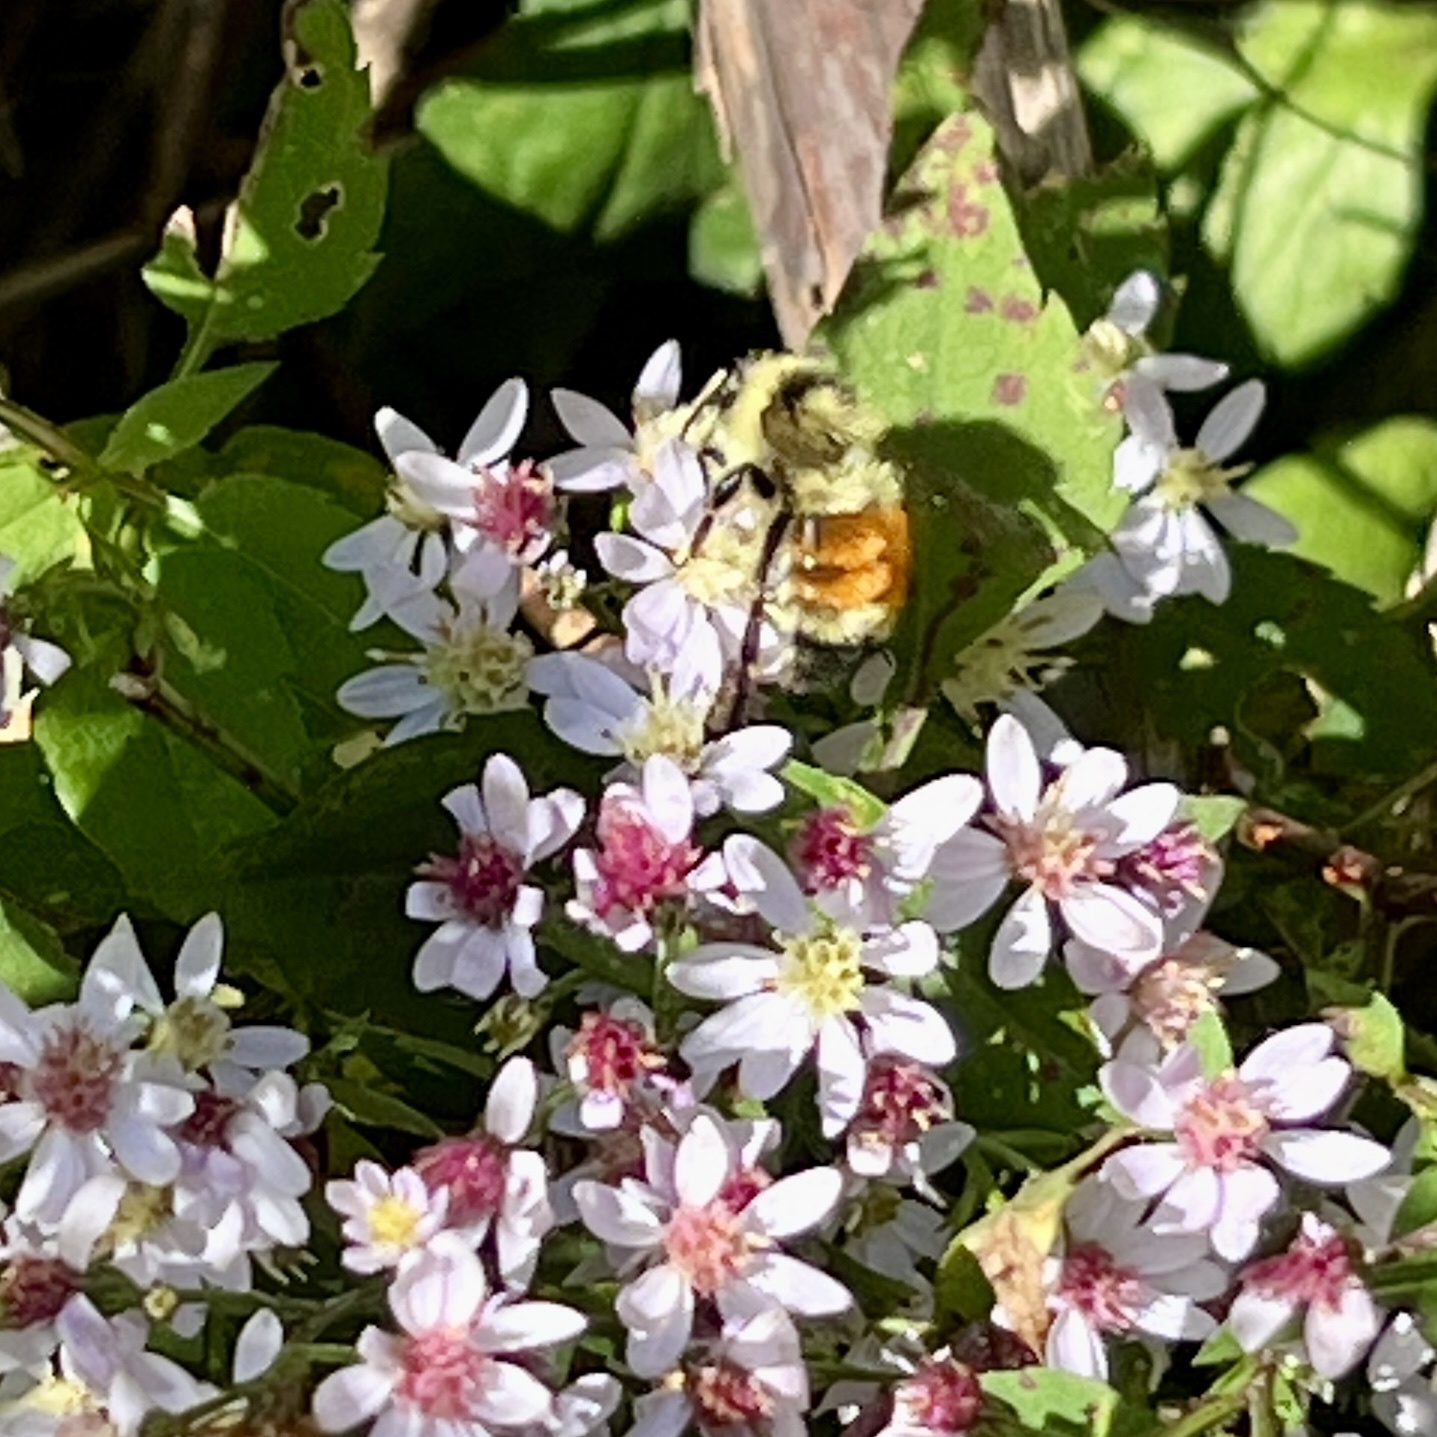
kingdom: Animalia
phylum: Arthropoda
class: Insecta
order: Hymenoptera
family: Apidae
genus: Bombus
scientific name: Bombus ternarius
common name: Tri-colored bumble bee
